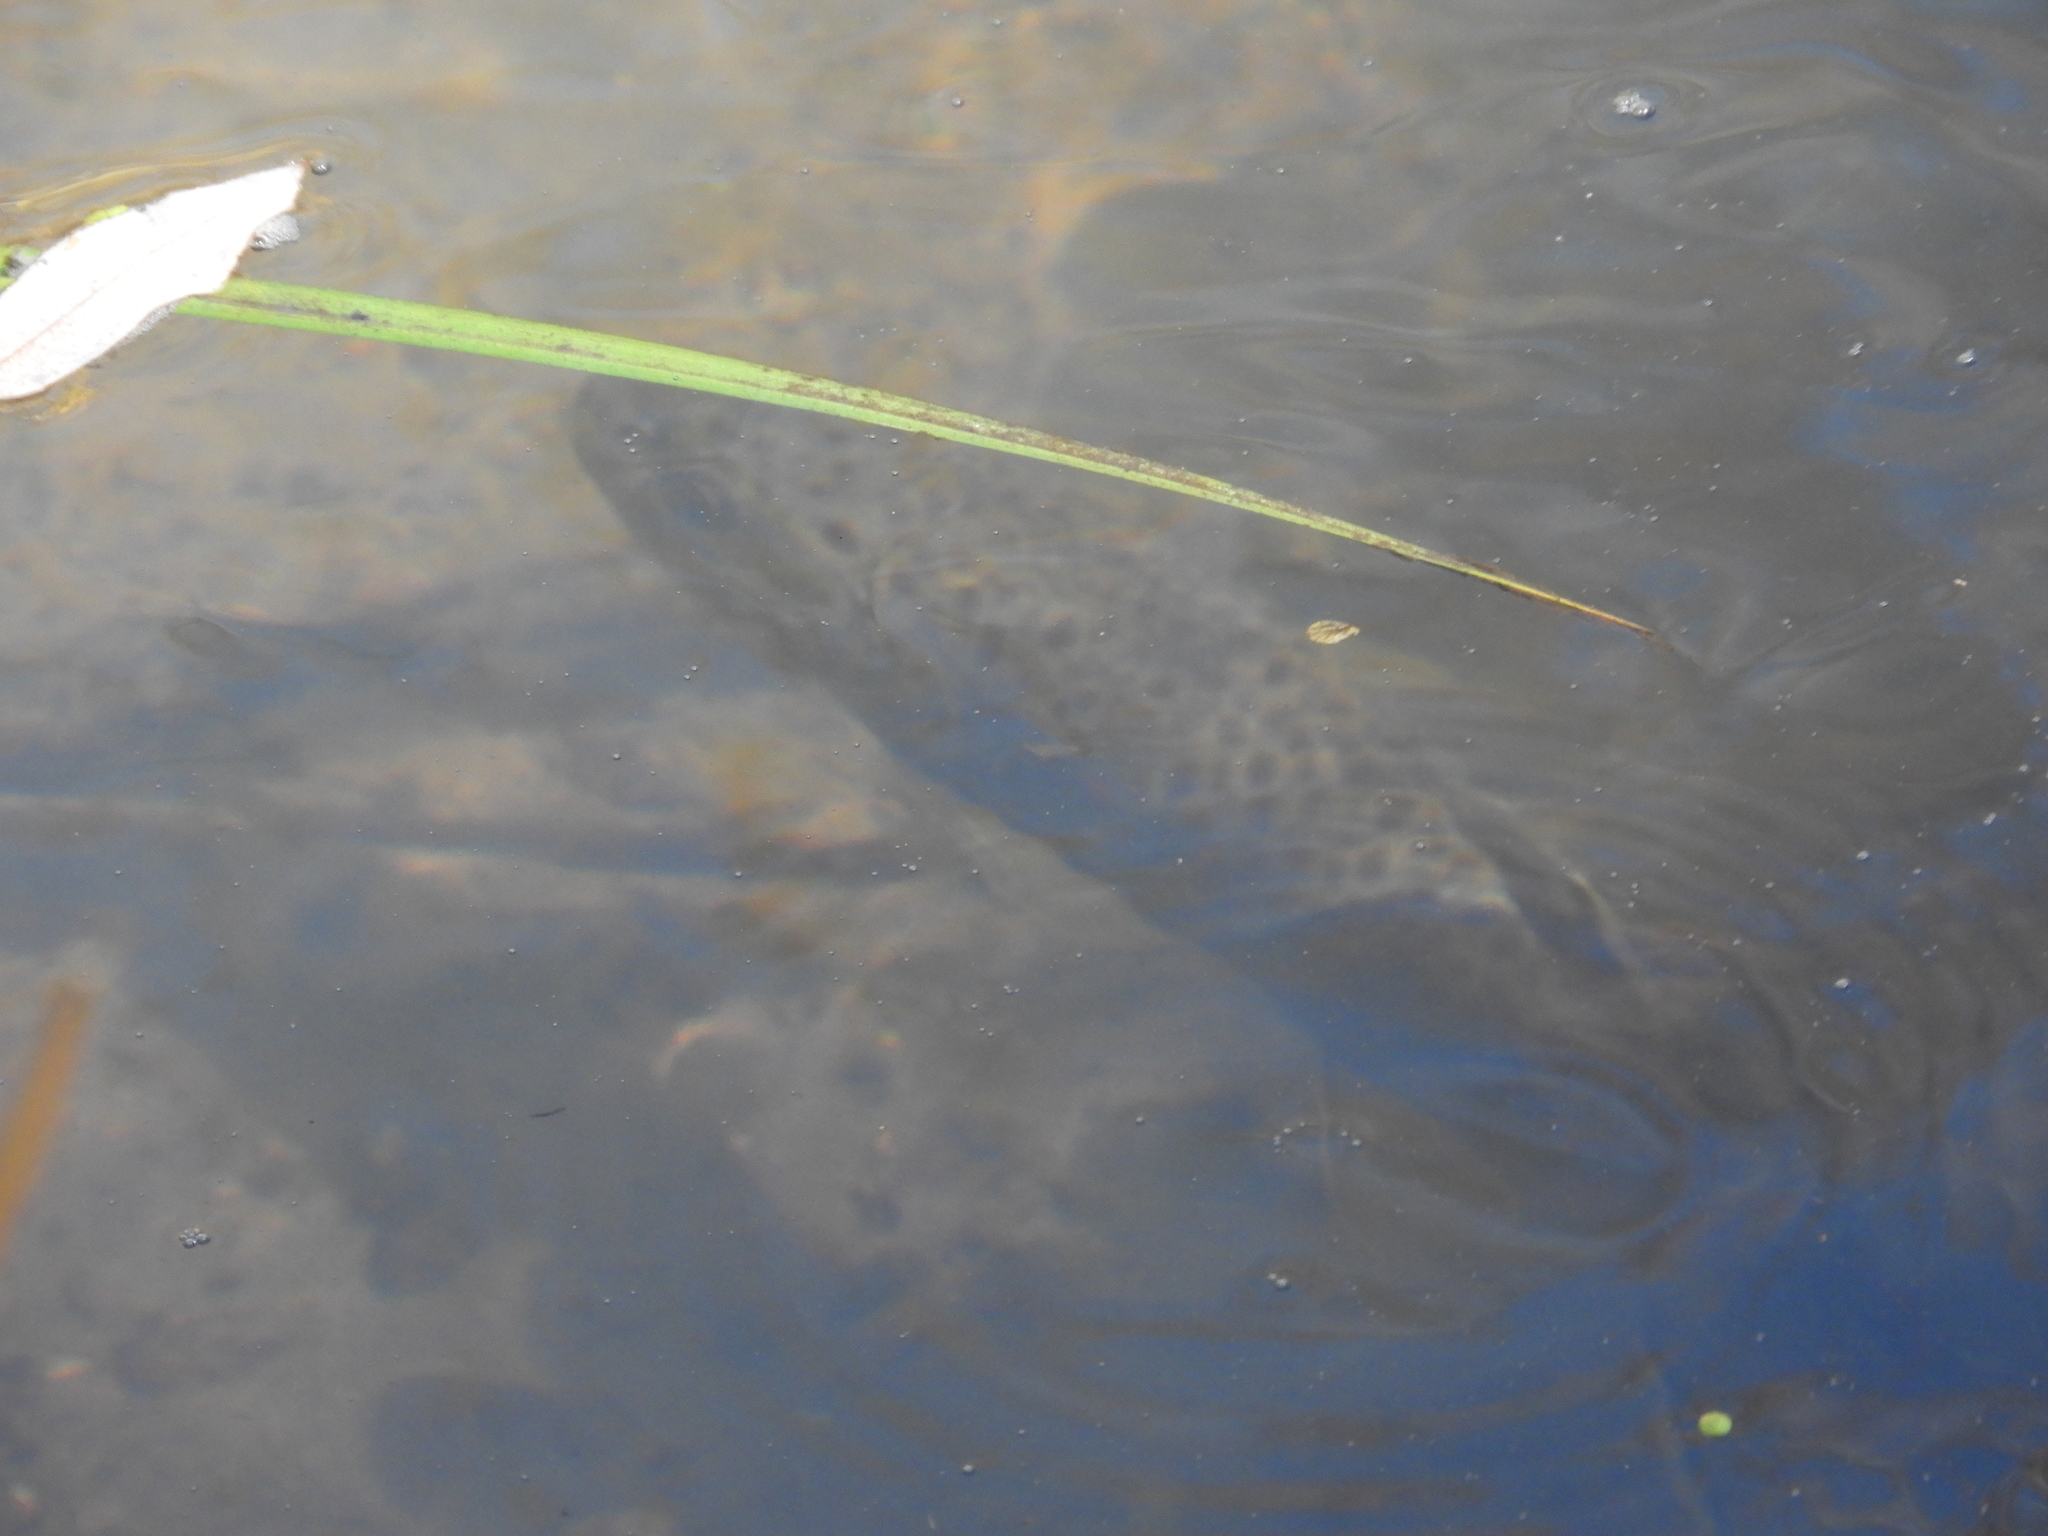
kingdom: Animalia
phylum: Chordata
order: Salmoniformes
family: Salmonidae
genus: Oncorhynchus
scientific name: Oncorhynchus mykiss
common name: Rainbow trout
